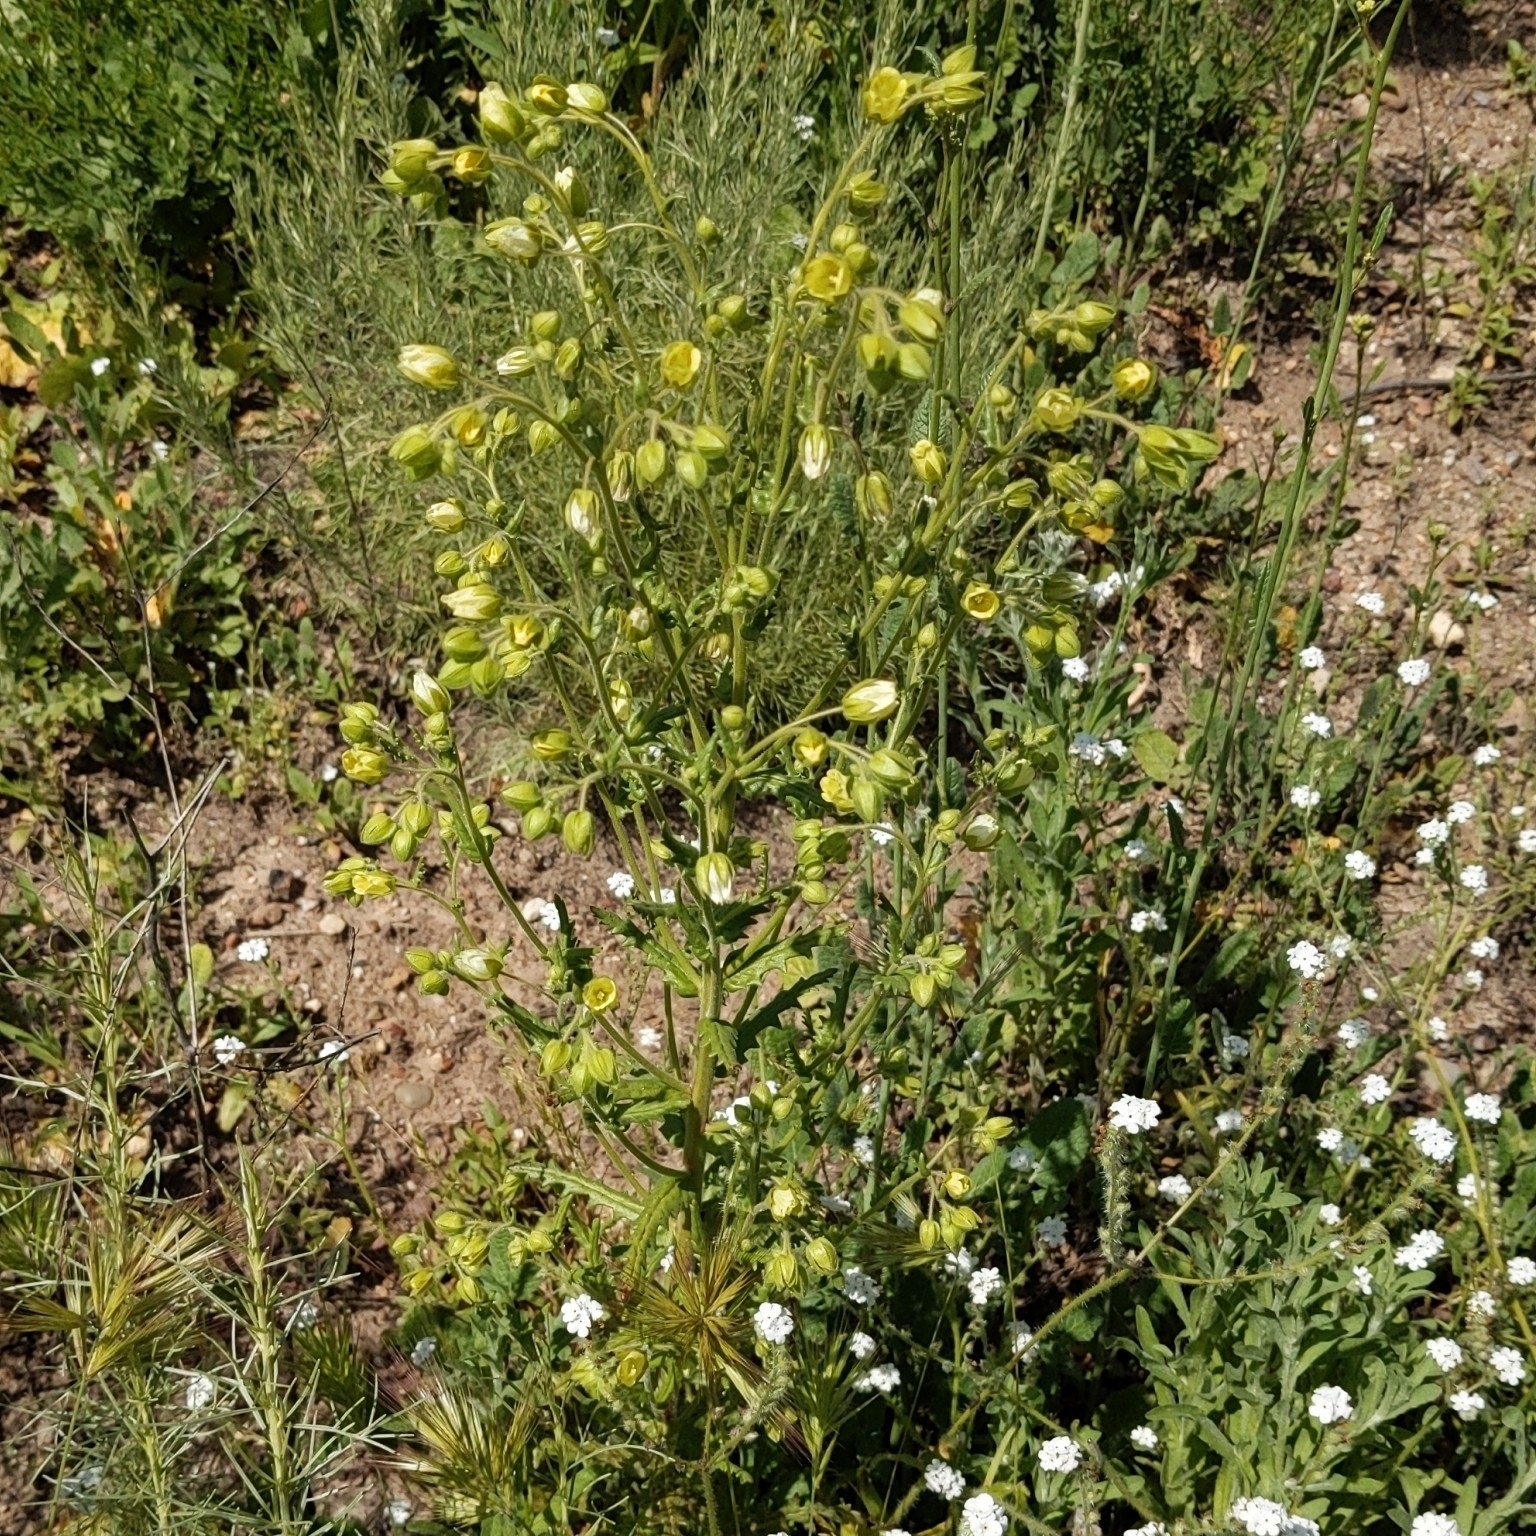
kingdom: Plantae
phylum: Tracheophyta
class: Magnoliopsida
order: Boraginales
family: Hydrophyllaceae
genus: Emmenanthe
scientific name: Emmenanthe penduliflora
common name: Whispering-bells
